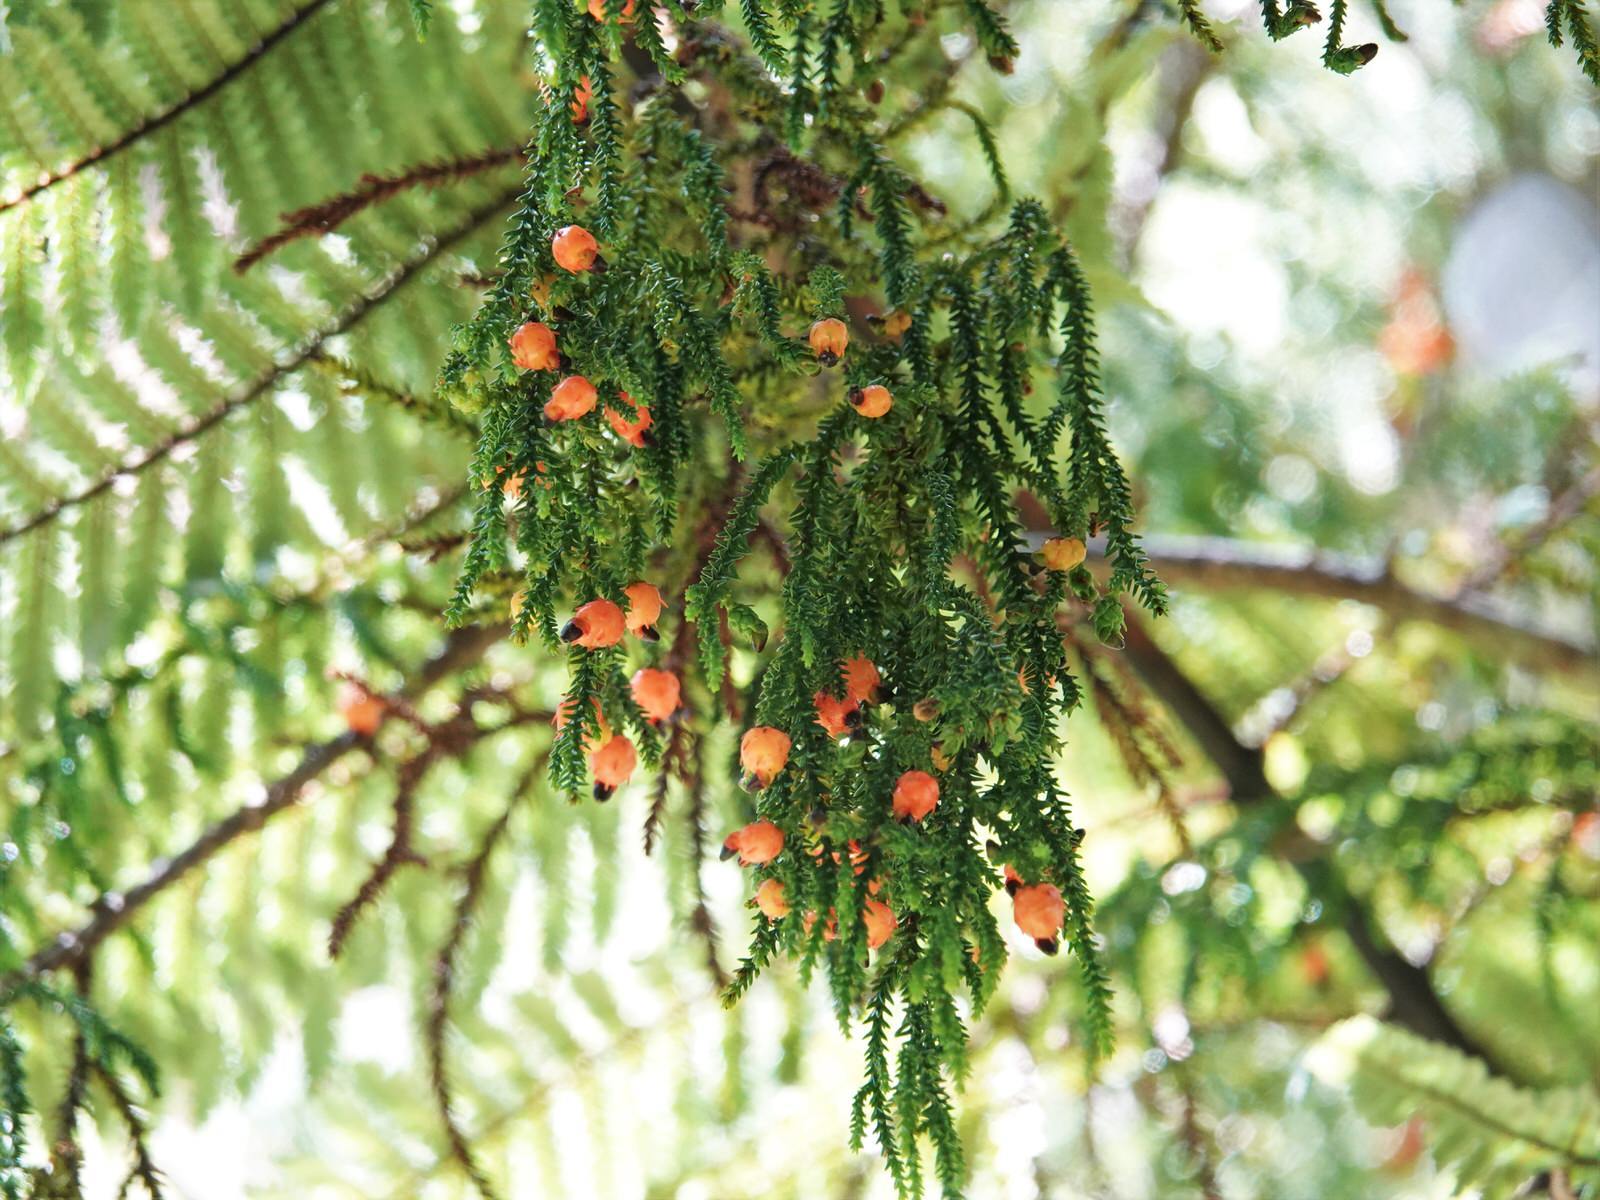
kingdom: Plantae
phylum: Tracheophyta
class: Pinopsida
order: Pinales
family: Podocarpaceae
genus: Dacrydium
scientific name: Dacrydium cupressinum
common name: Red pine
